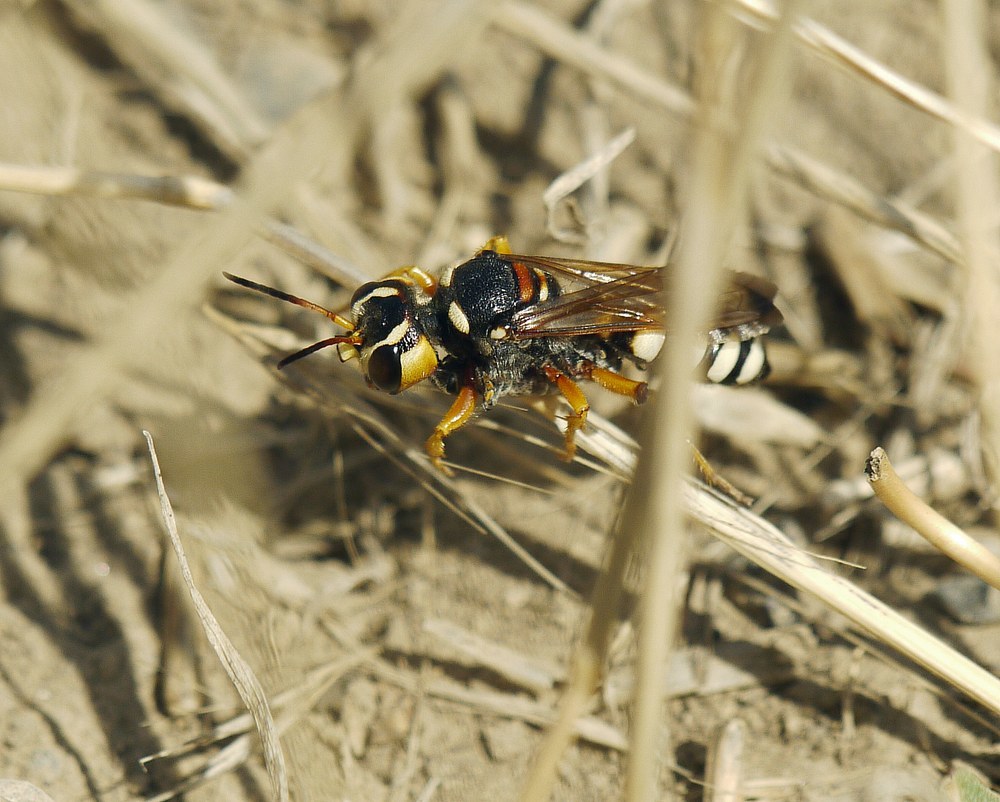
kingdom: Animalia
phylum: Arthropoda
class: Insecta
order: Hymenoptera
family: Crabronidae
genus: Cerceris
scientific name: Cerceris tuberculata
